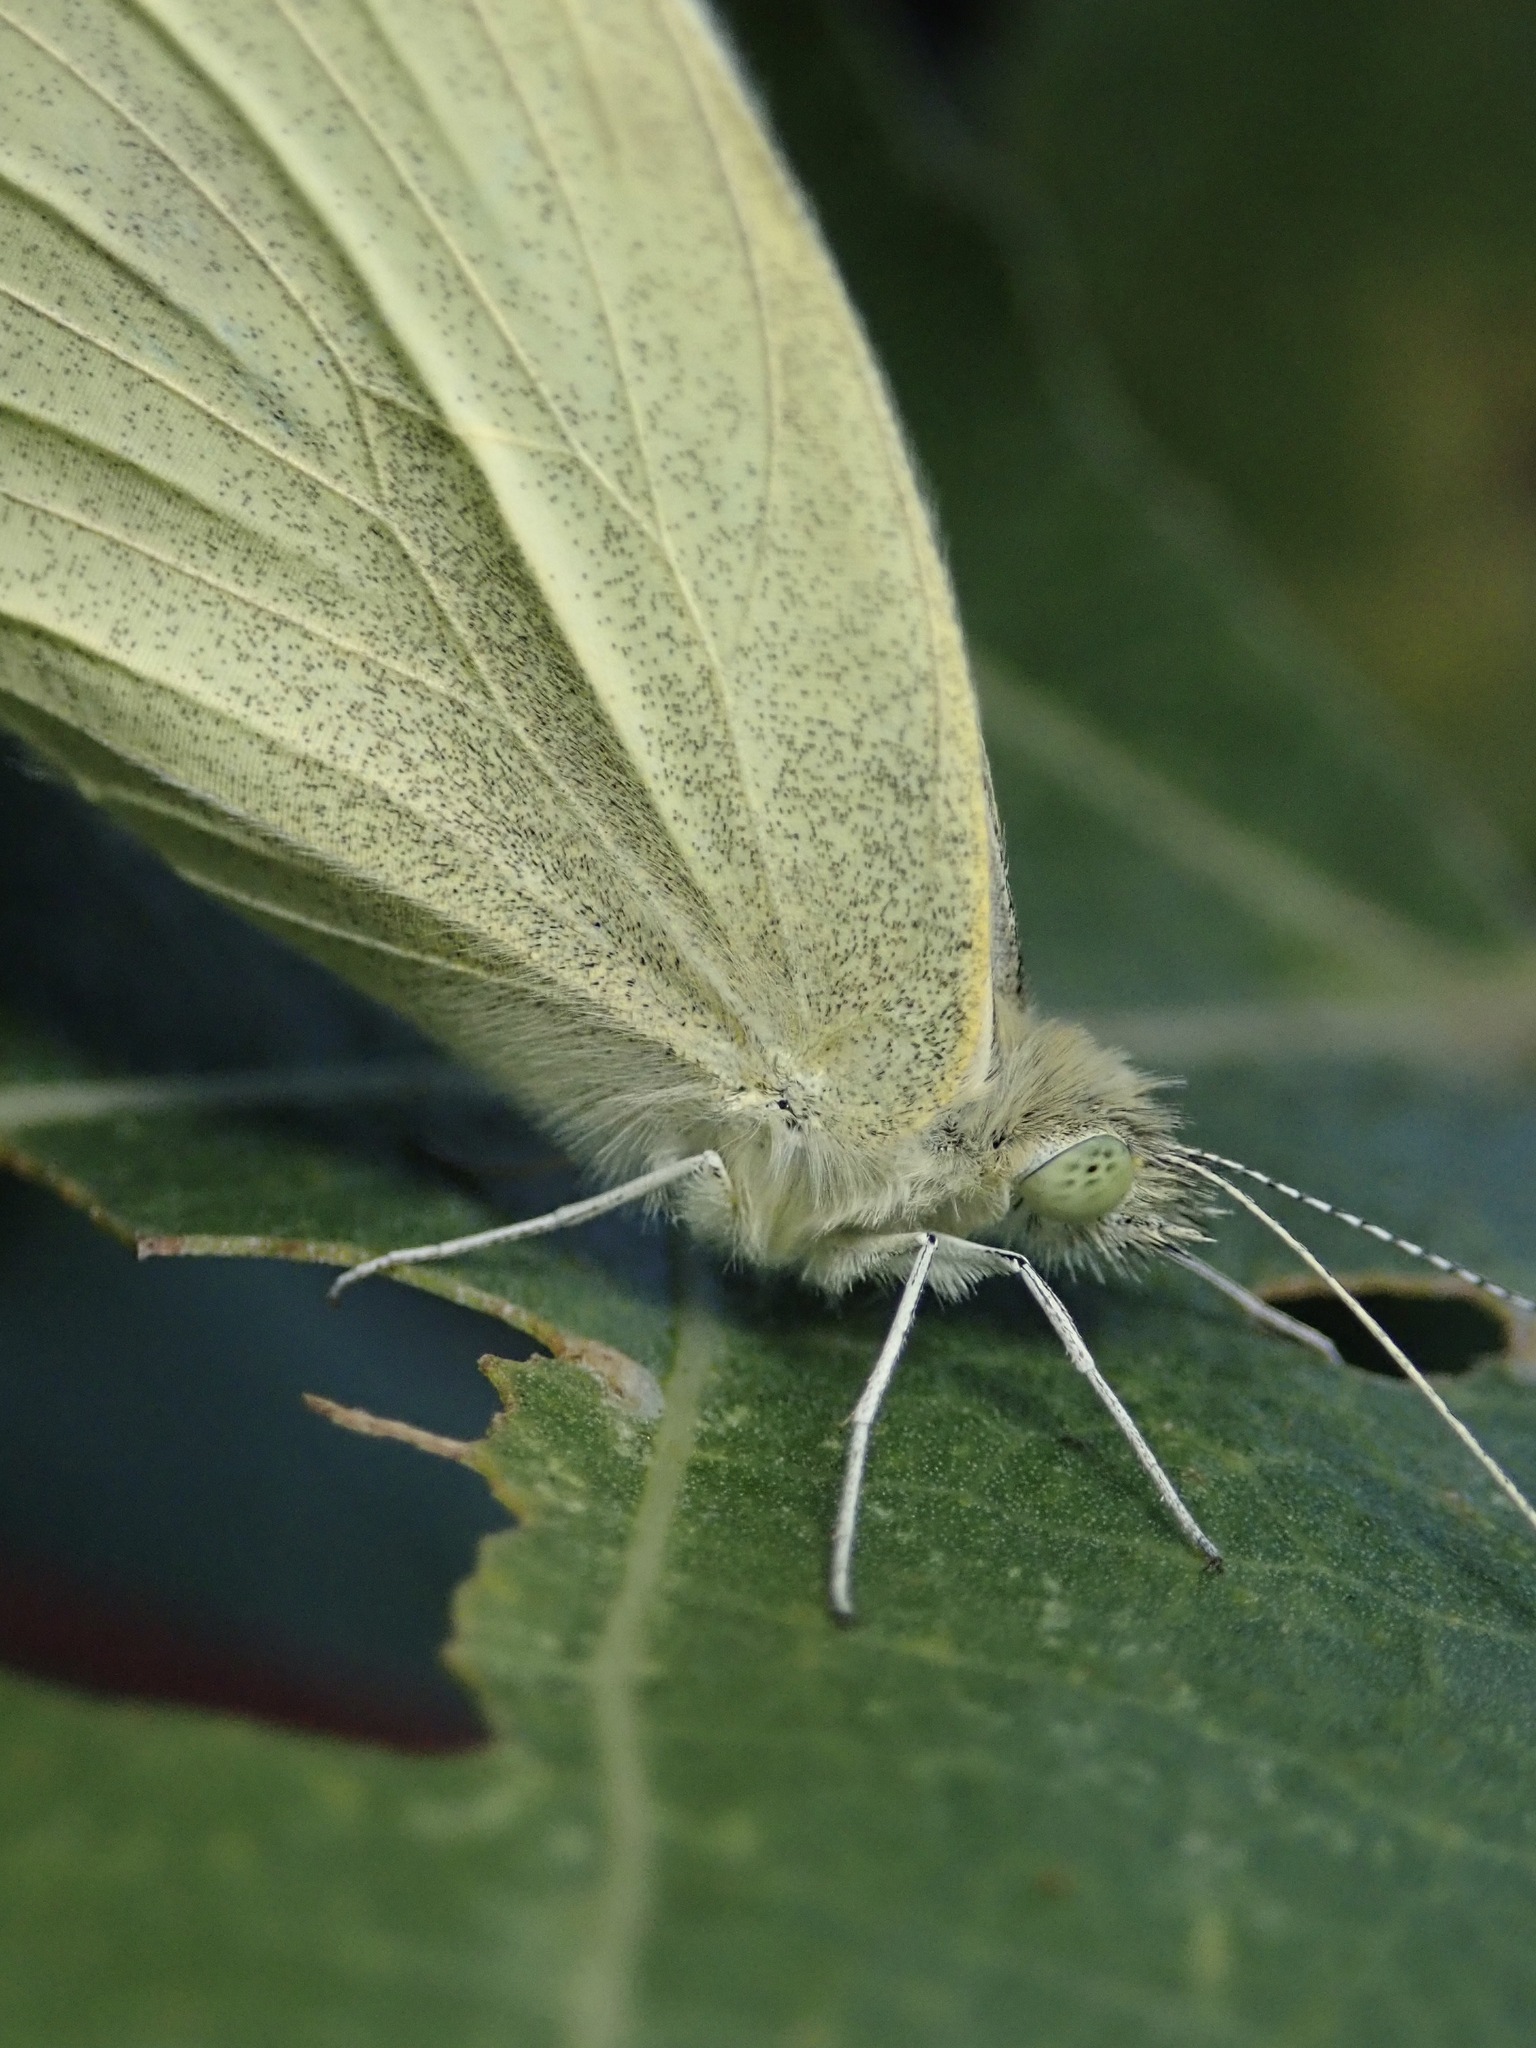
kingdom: Animalia
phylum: Arthropoda
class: Insecta
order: Lepidoptera
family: Pieridae
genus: Pieris
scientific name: Pieris rapae
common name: Small white
